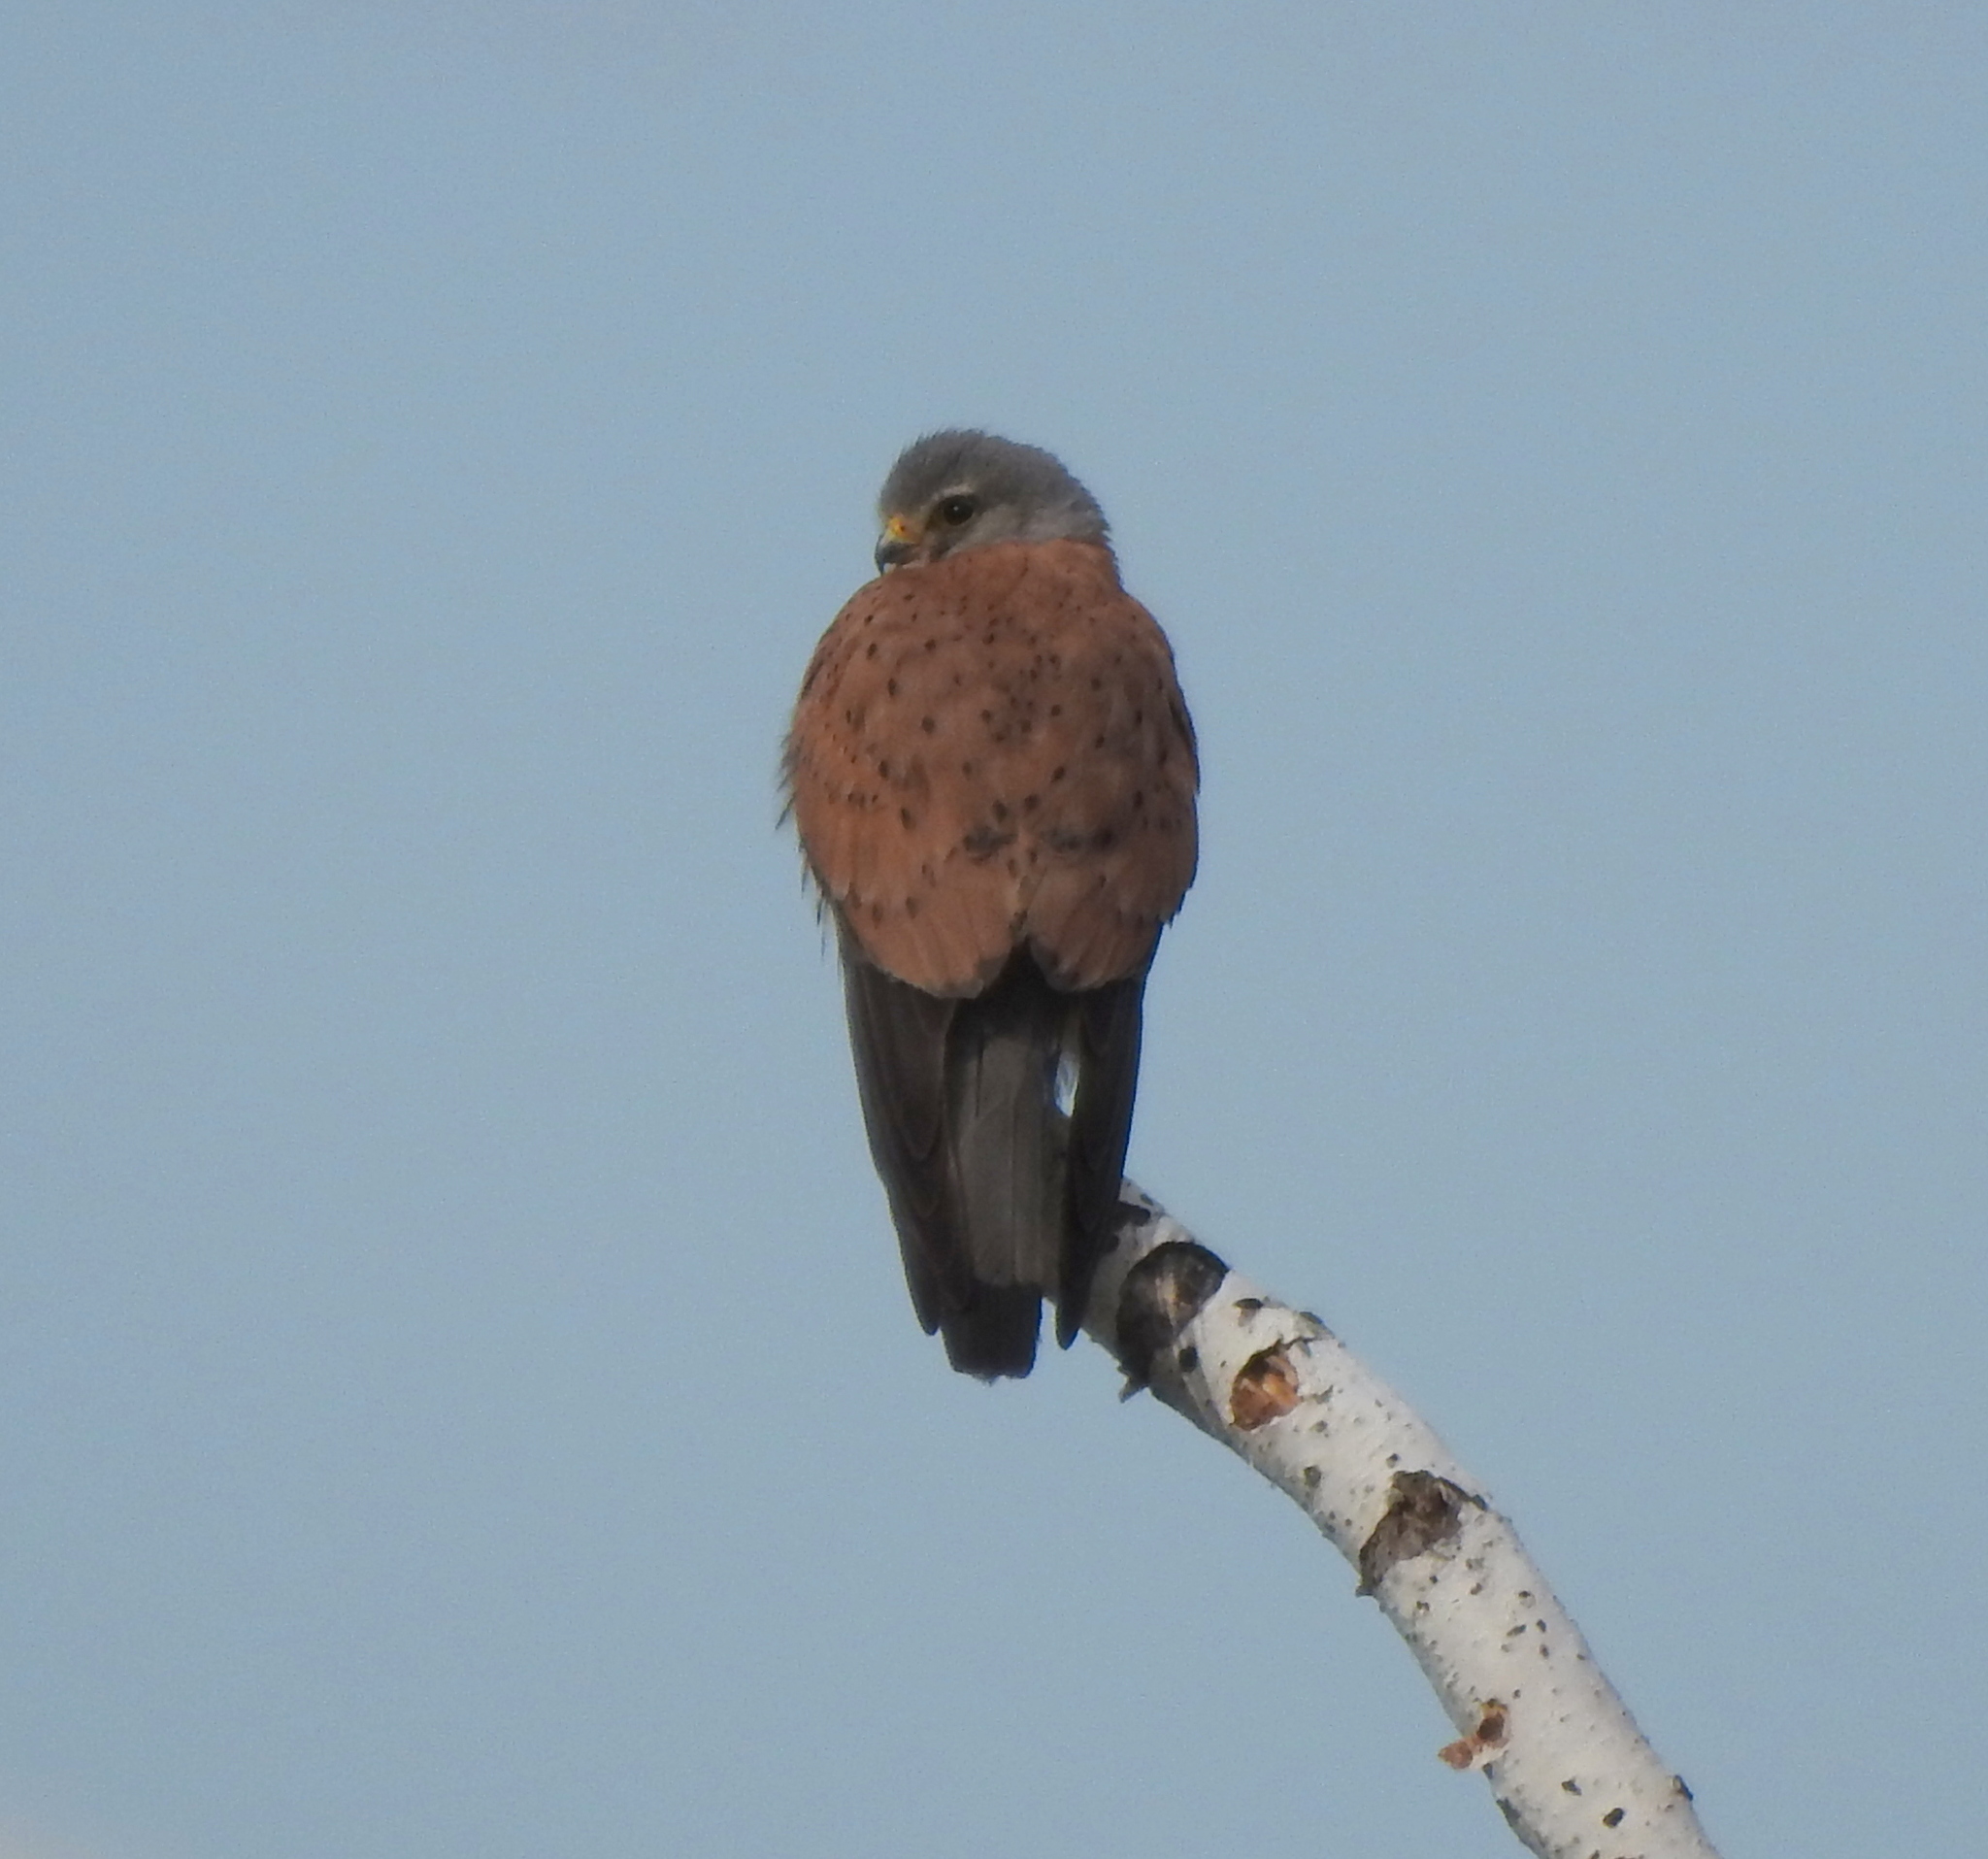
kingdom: Animalia
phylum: Chordata
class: Aves
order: Falconiformes
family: Falconidae
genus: Falco
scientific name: Falco tinnunculus
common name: Common kestrel
